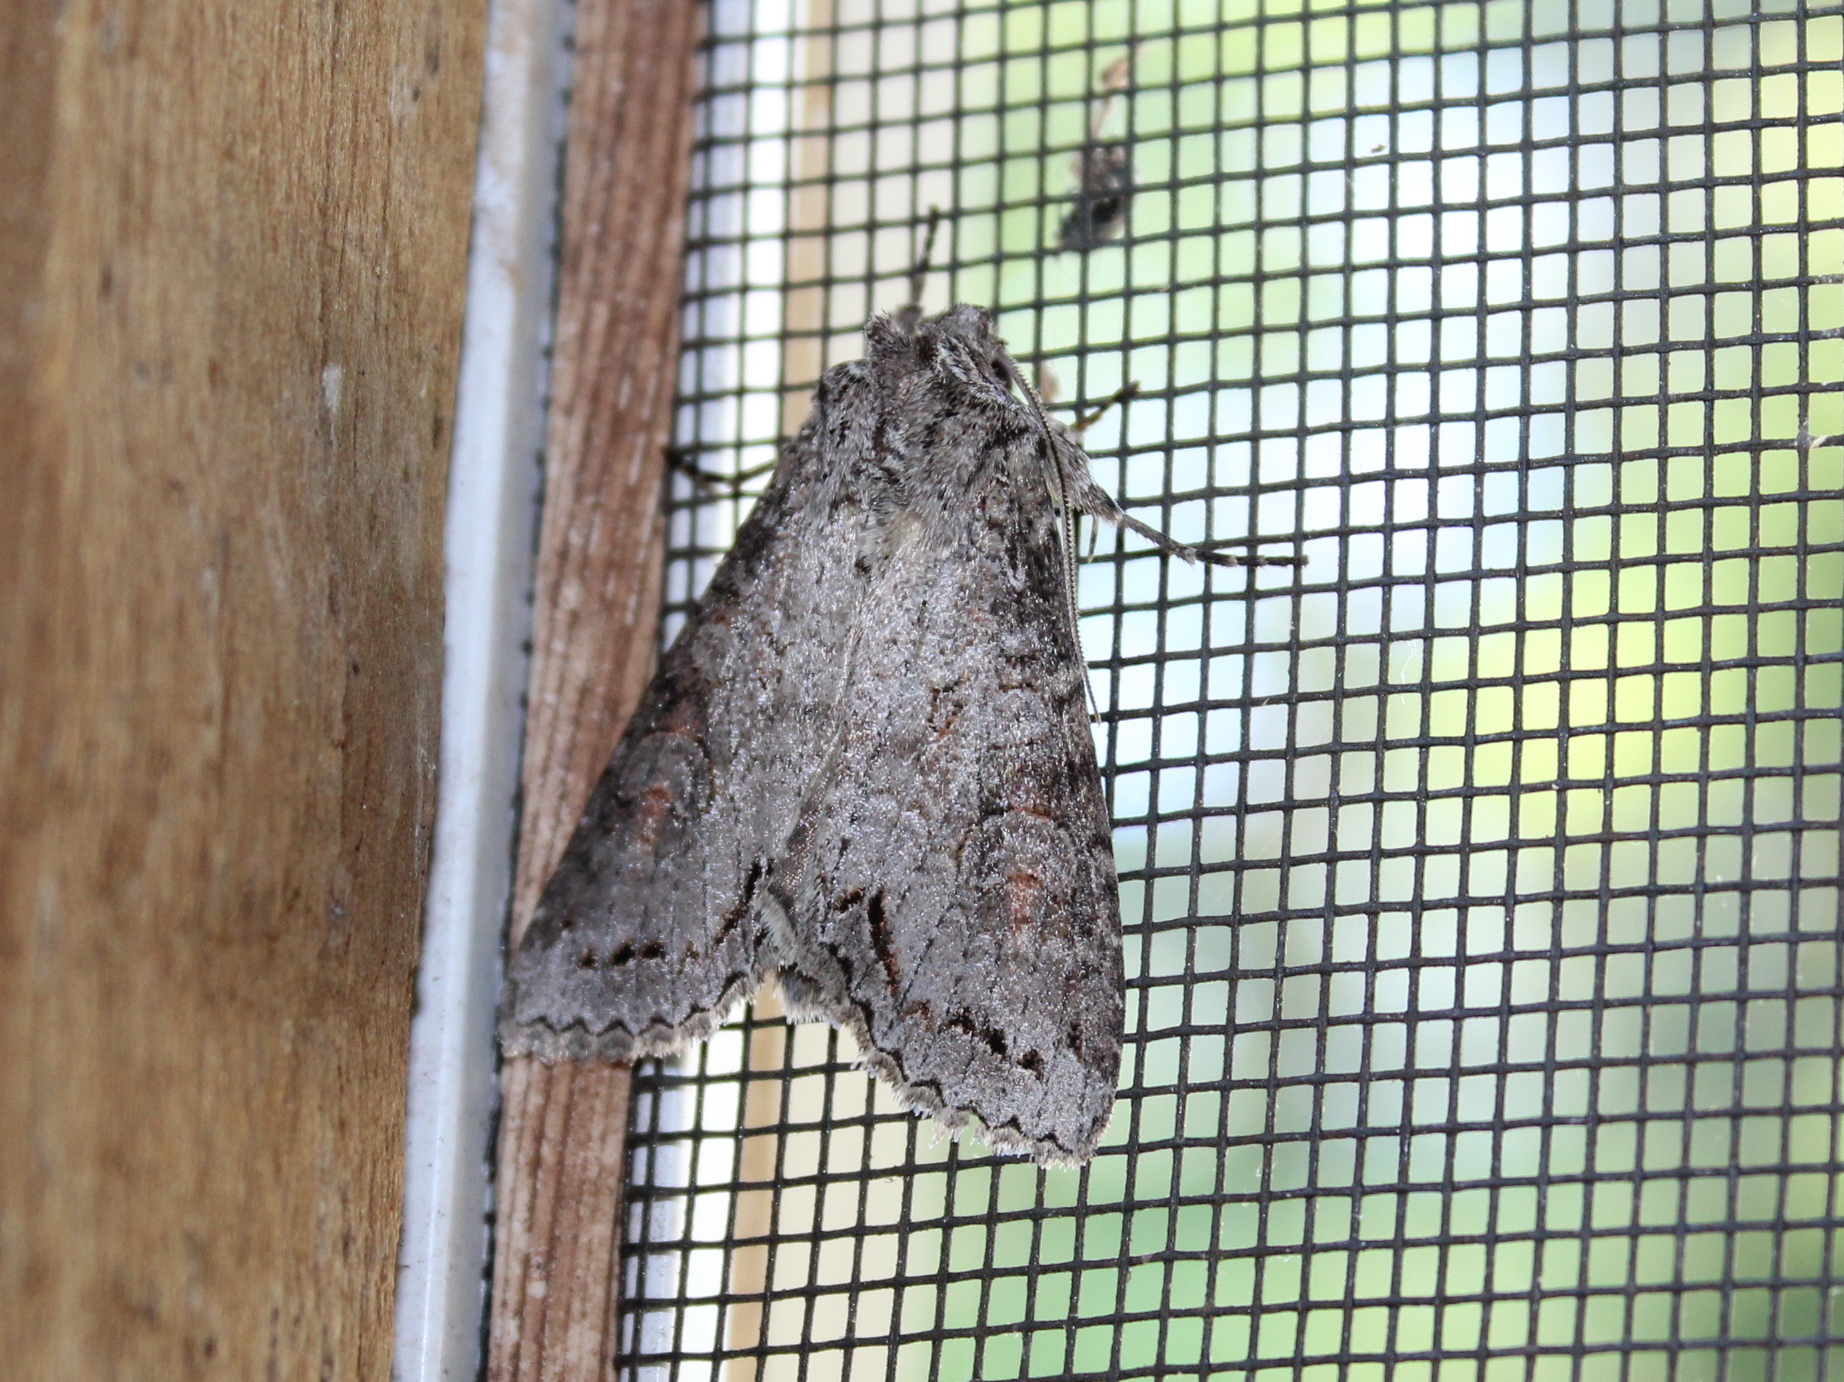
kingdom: Animalia
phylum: Arthropoda
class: Insecta
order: Lepidoptera
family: Noctuidae
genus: Polia
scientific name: Polia purpurissata
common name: Purple arches moth
